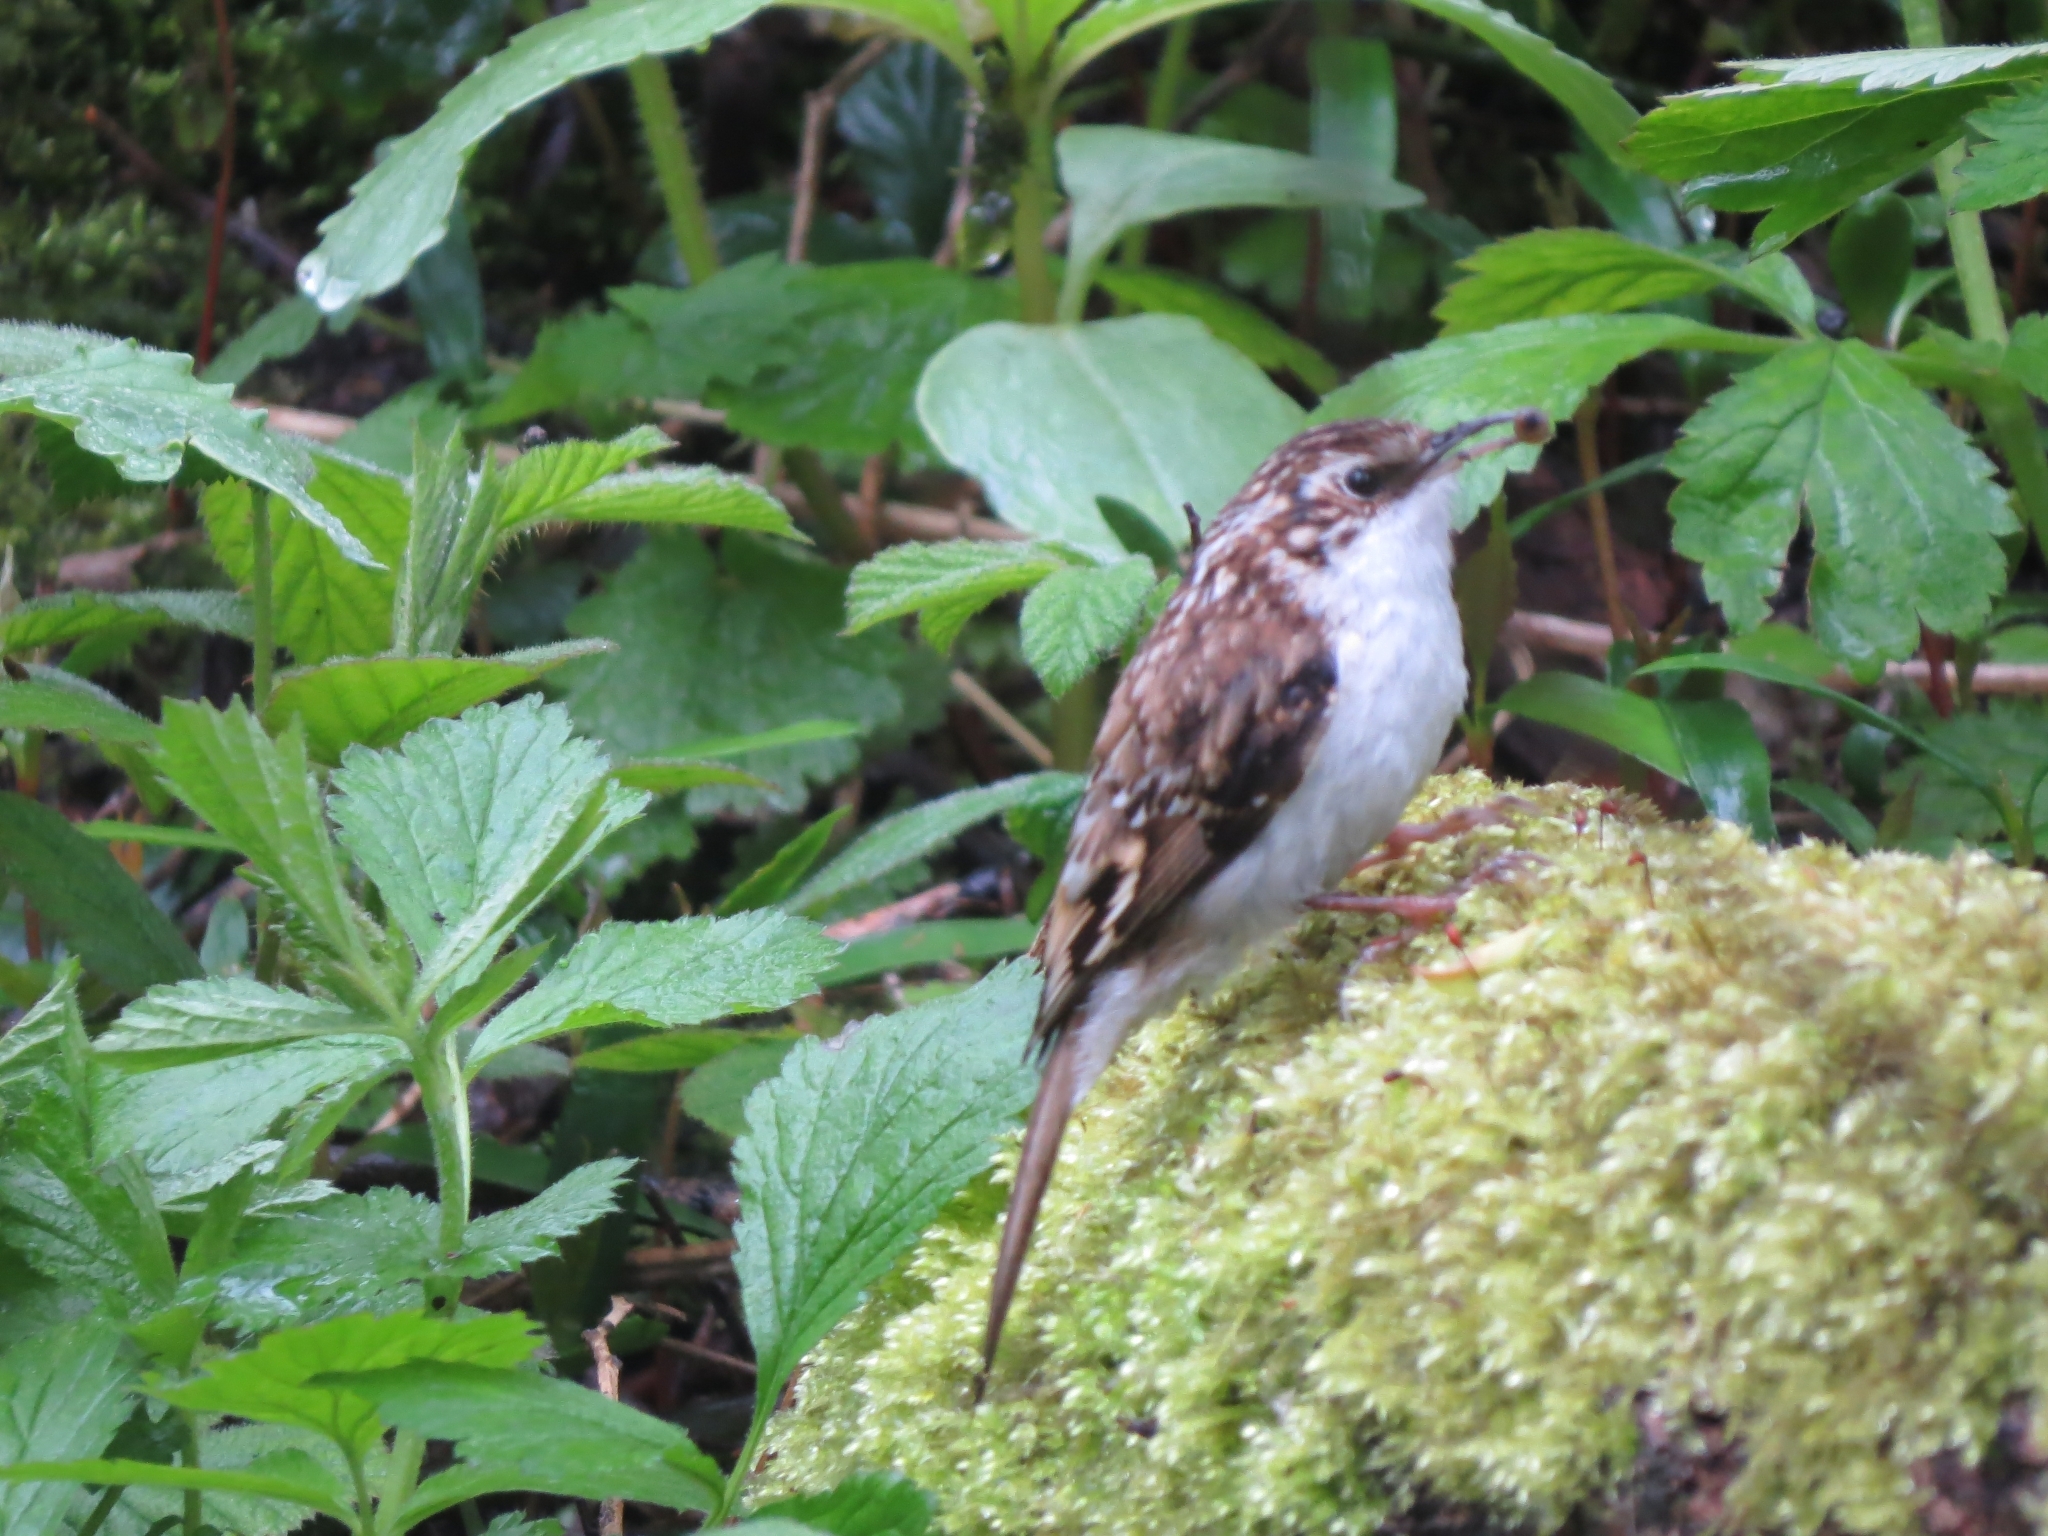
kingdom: Animalia
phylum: Chordata
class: Aves
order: Passeriformes
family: Certhiidae
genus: Certhia
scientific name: Certhia familiaris
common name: Eurasian treecreeper
